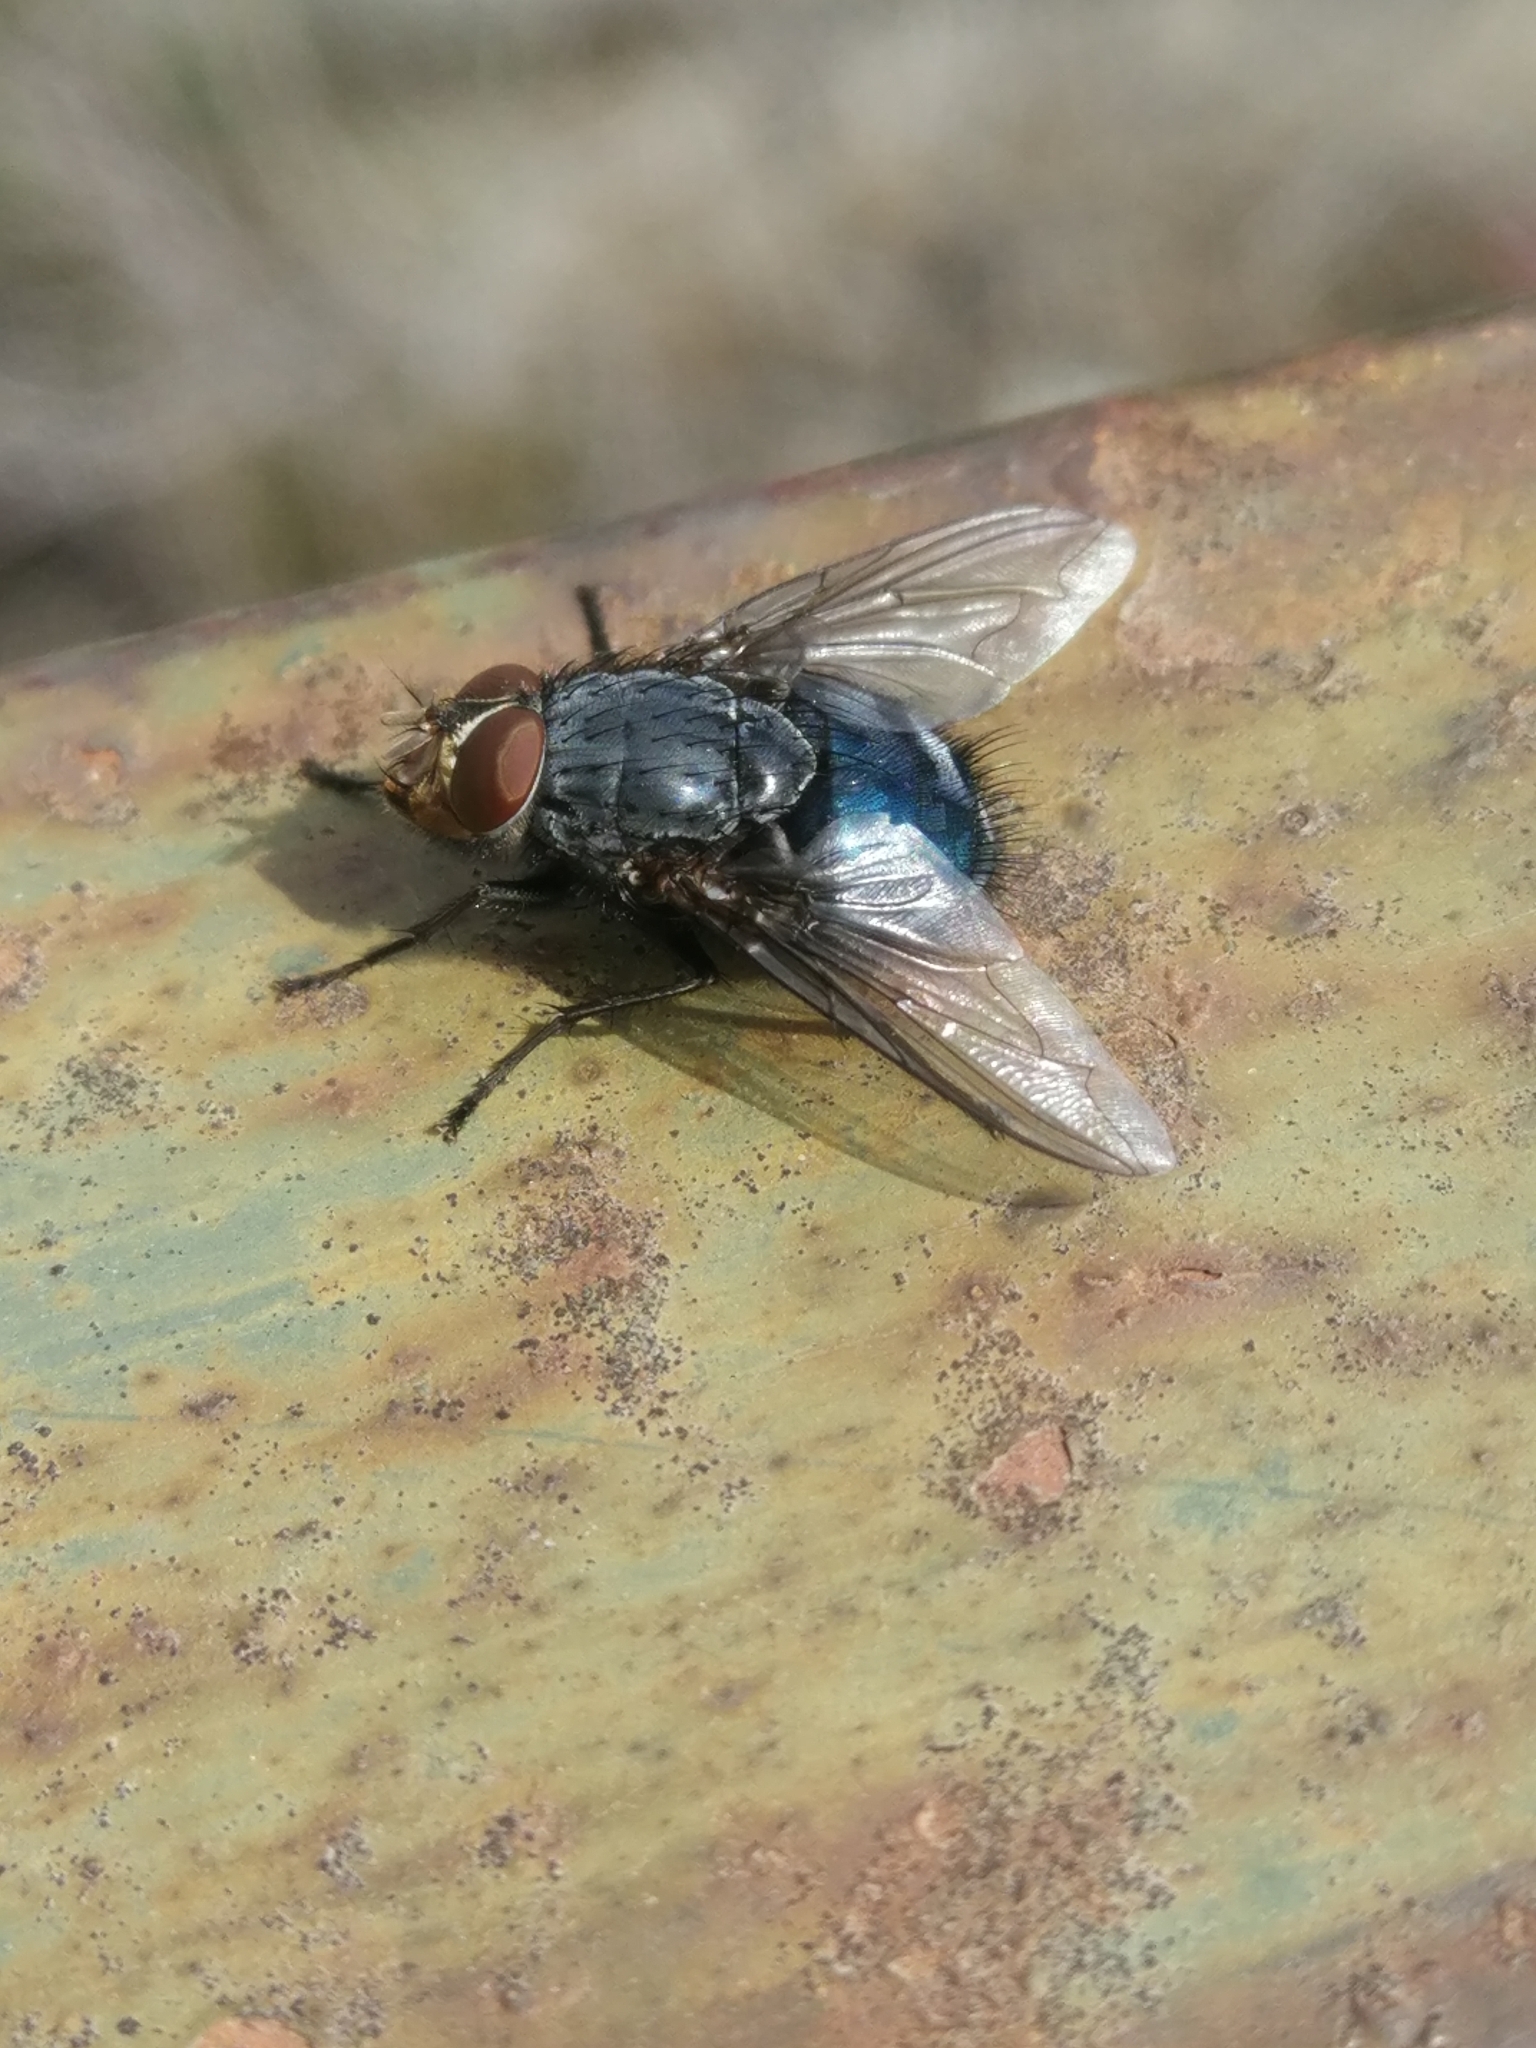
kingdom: Animalia
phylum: Arthropoda
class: Insecta
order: Diptera
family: Calliphoridae
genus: Calliphora
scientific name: Calliphora vicina
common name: Common blow flie
